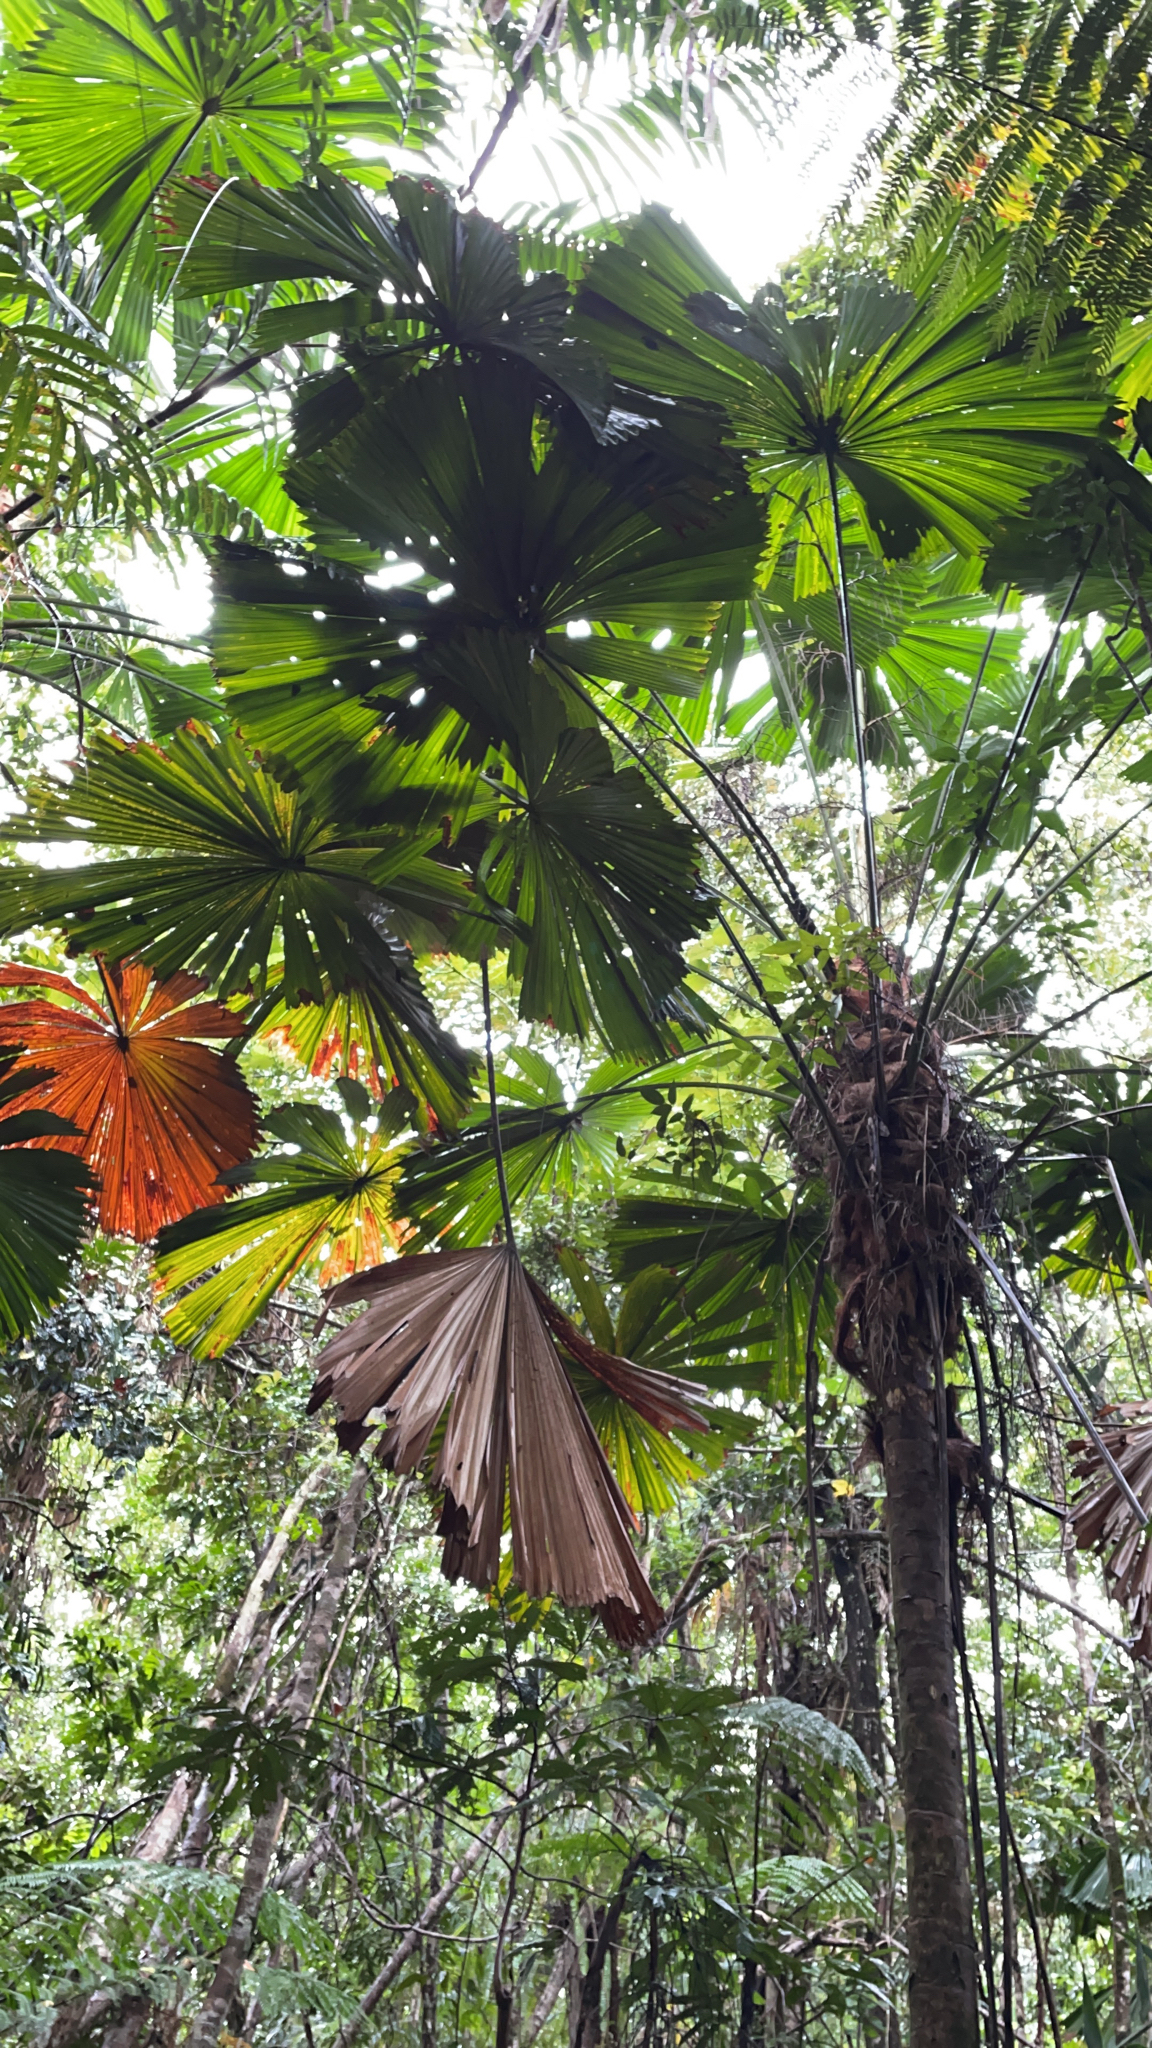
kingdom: Plantae
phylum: Tracheophyta
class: Liliopsida
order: Arecales
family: Arecaceae
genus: Licuala
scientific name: Licuala ramsayi
